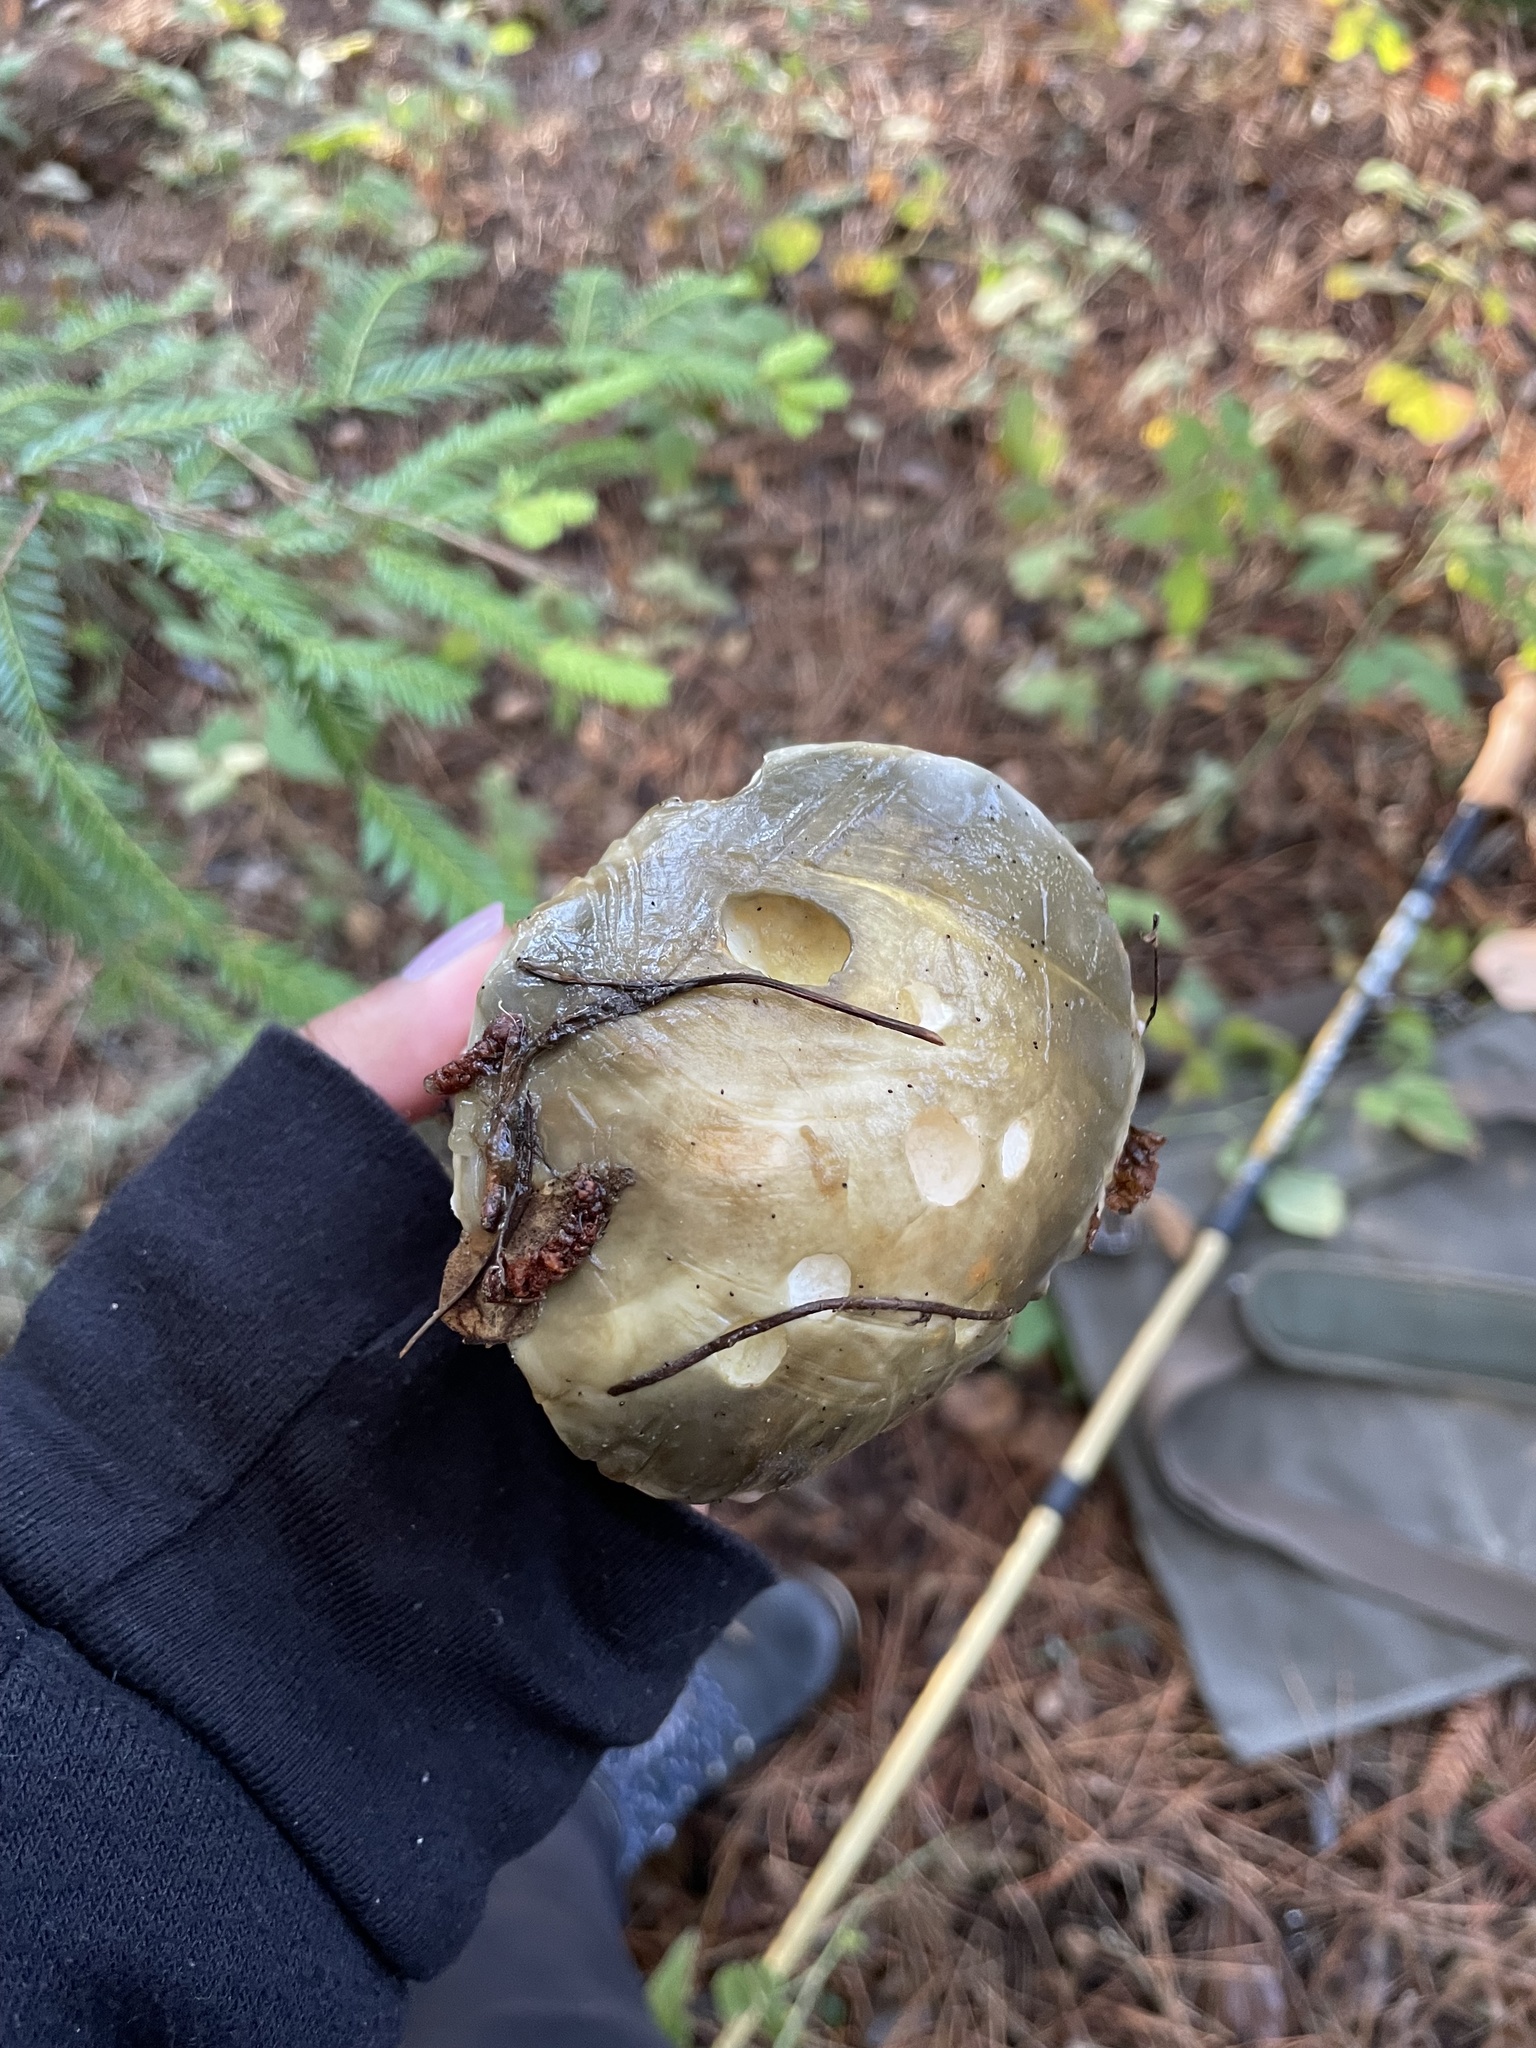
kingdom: Fungi
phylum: Basidiomycota
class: Agaricomycetes
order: Boletales
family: Suillaceae
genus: Suillus
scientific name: Suillus pungens
